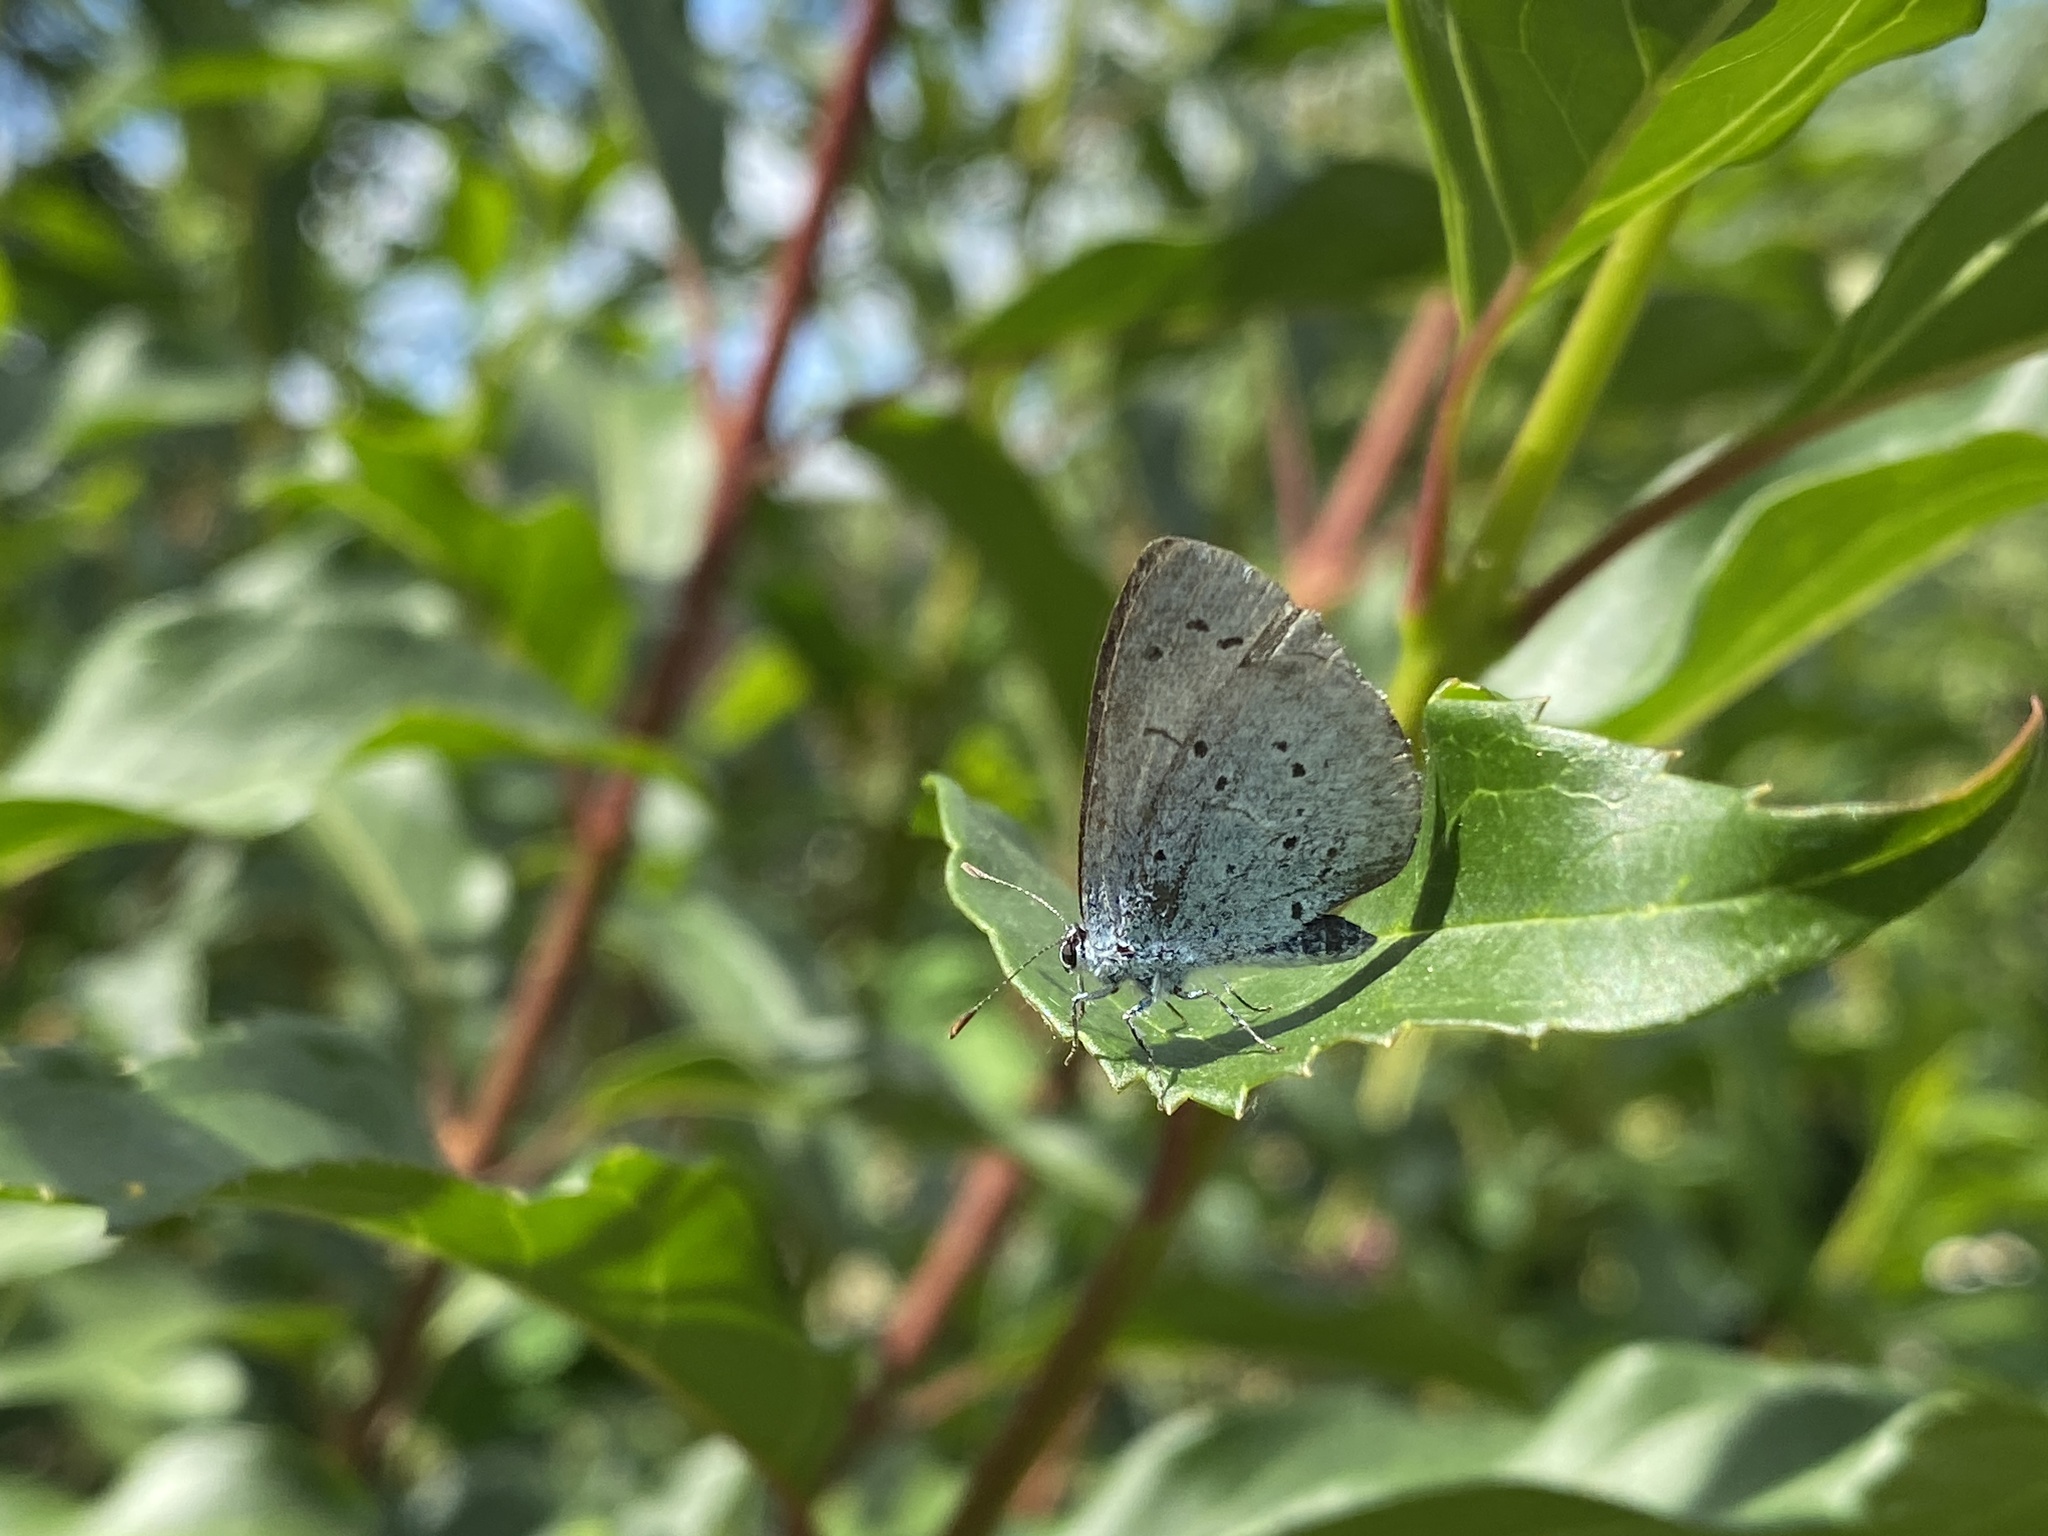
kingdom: Animalia
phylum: Arthropoda
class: Insecta
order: Lepidoptera
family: Lycaenidae
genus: Celastrina
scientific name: Celastrina argiolus
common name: Holly blue
